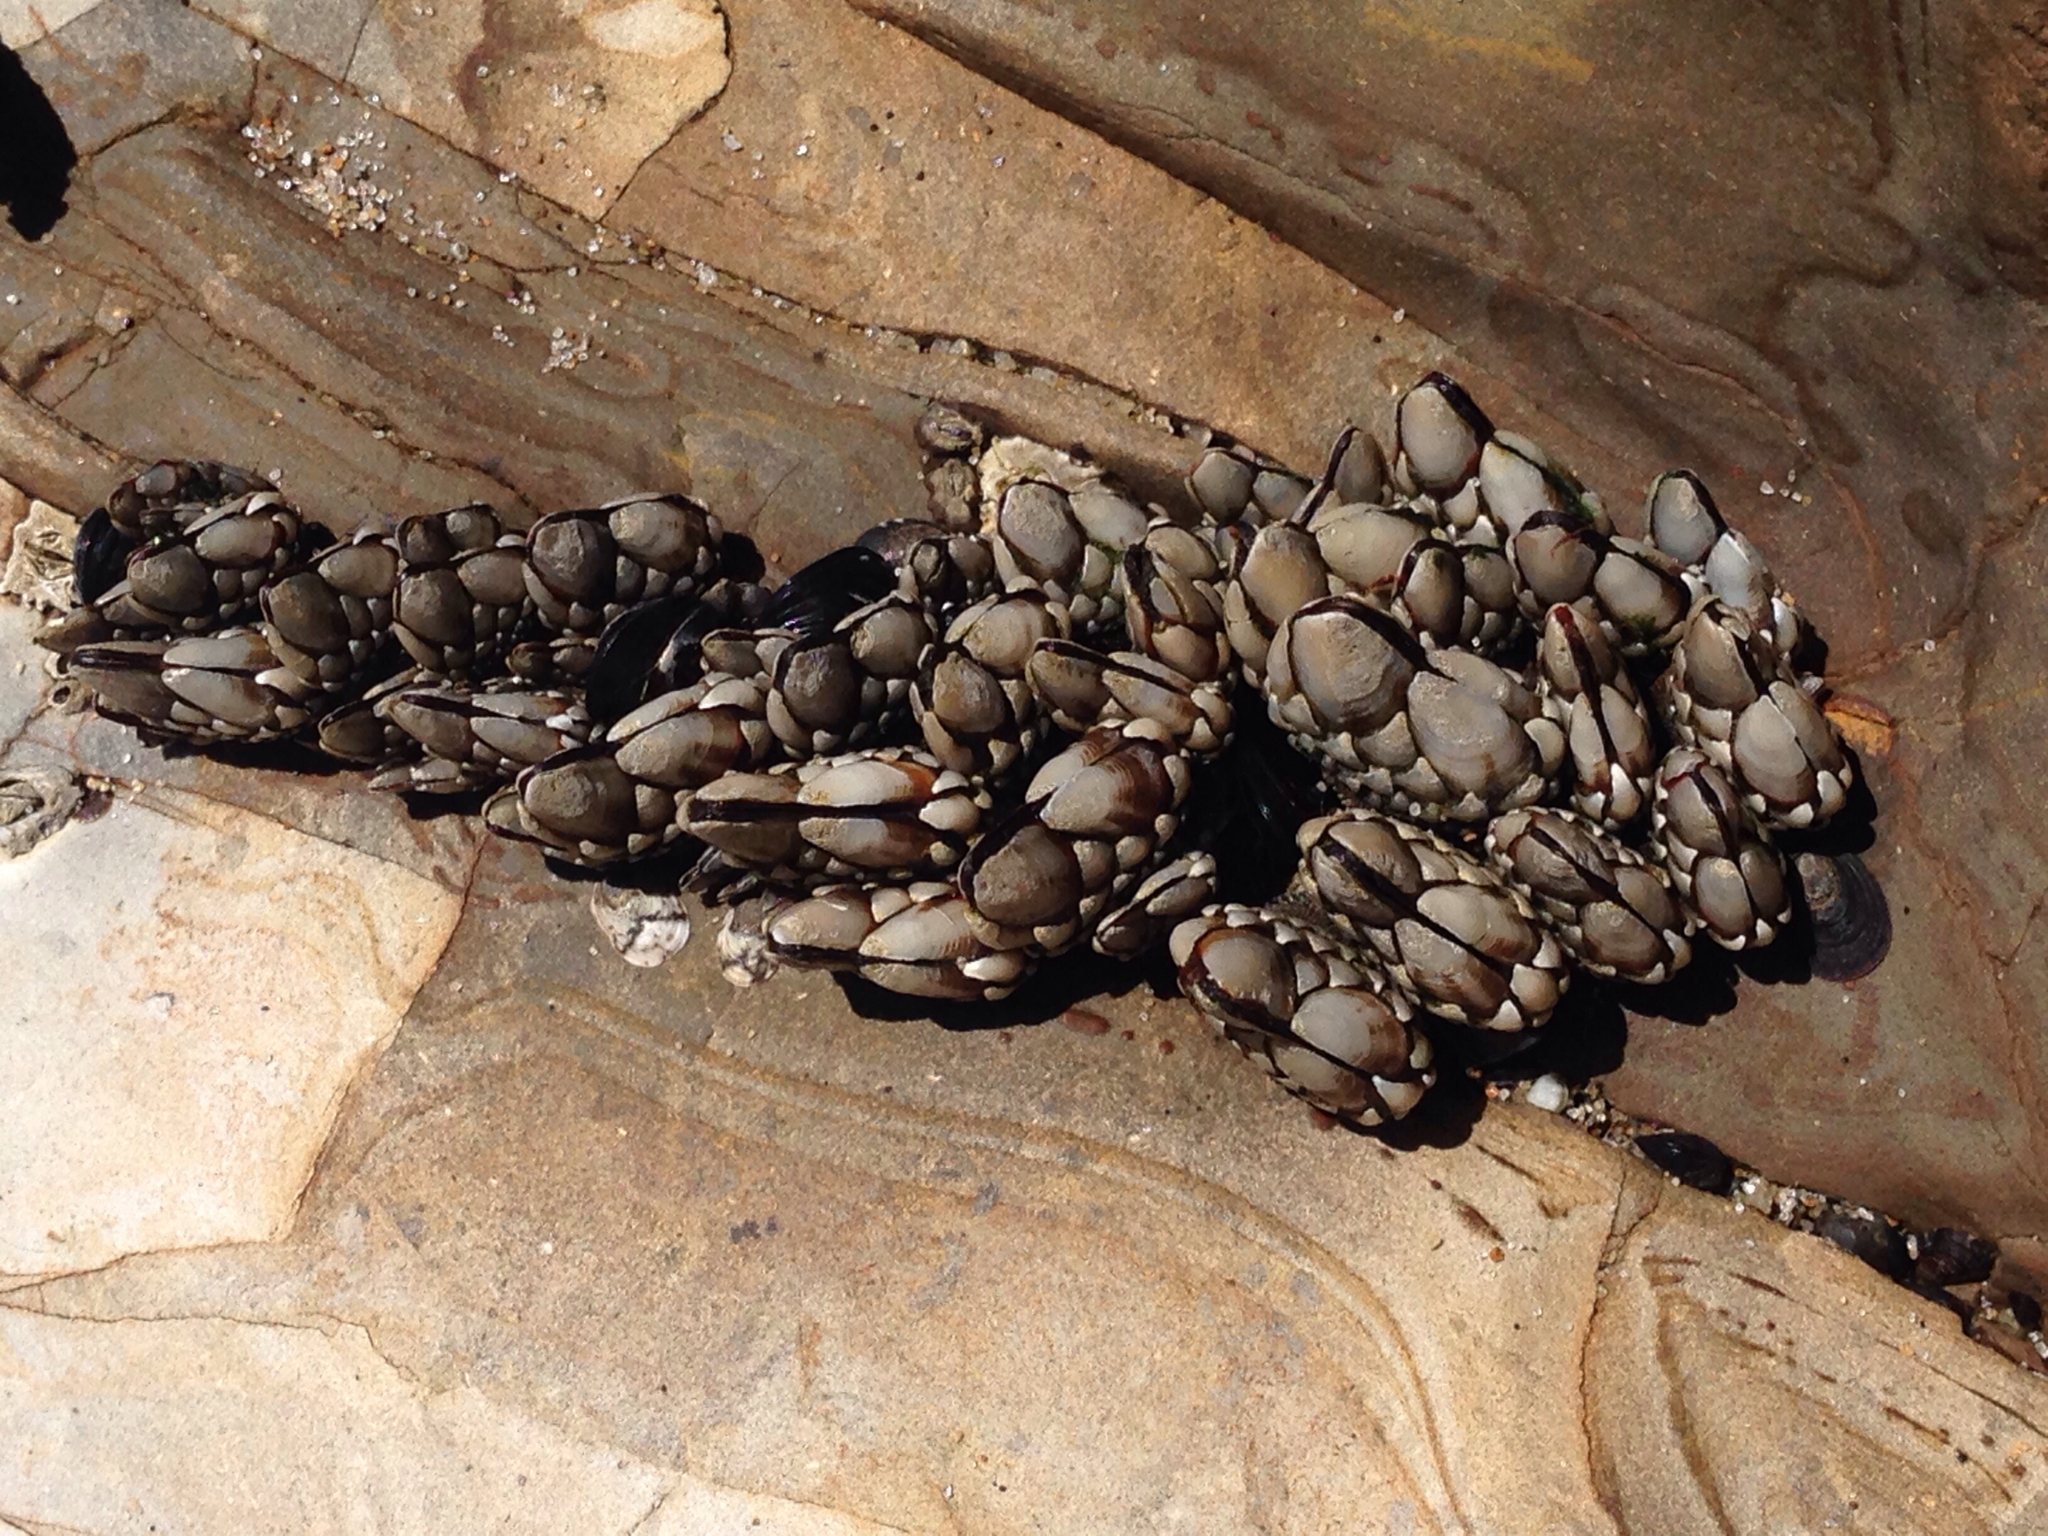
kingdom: Animalia
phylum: Arthropoda
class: Maxillopoda
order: Pedunculata
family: Pollicipedidae
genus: Pollicipes
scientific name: Pollicipes polymerus
